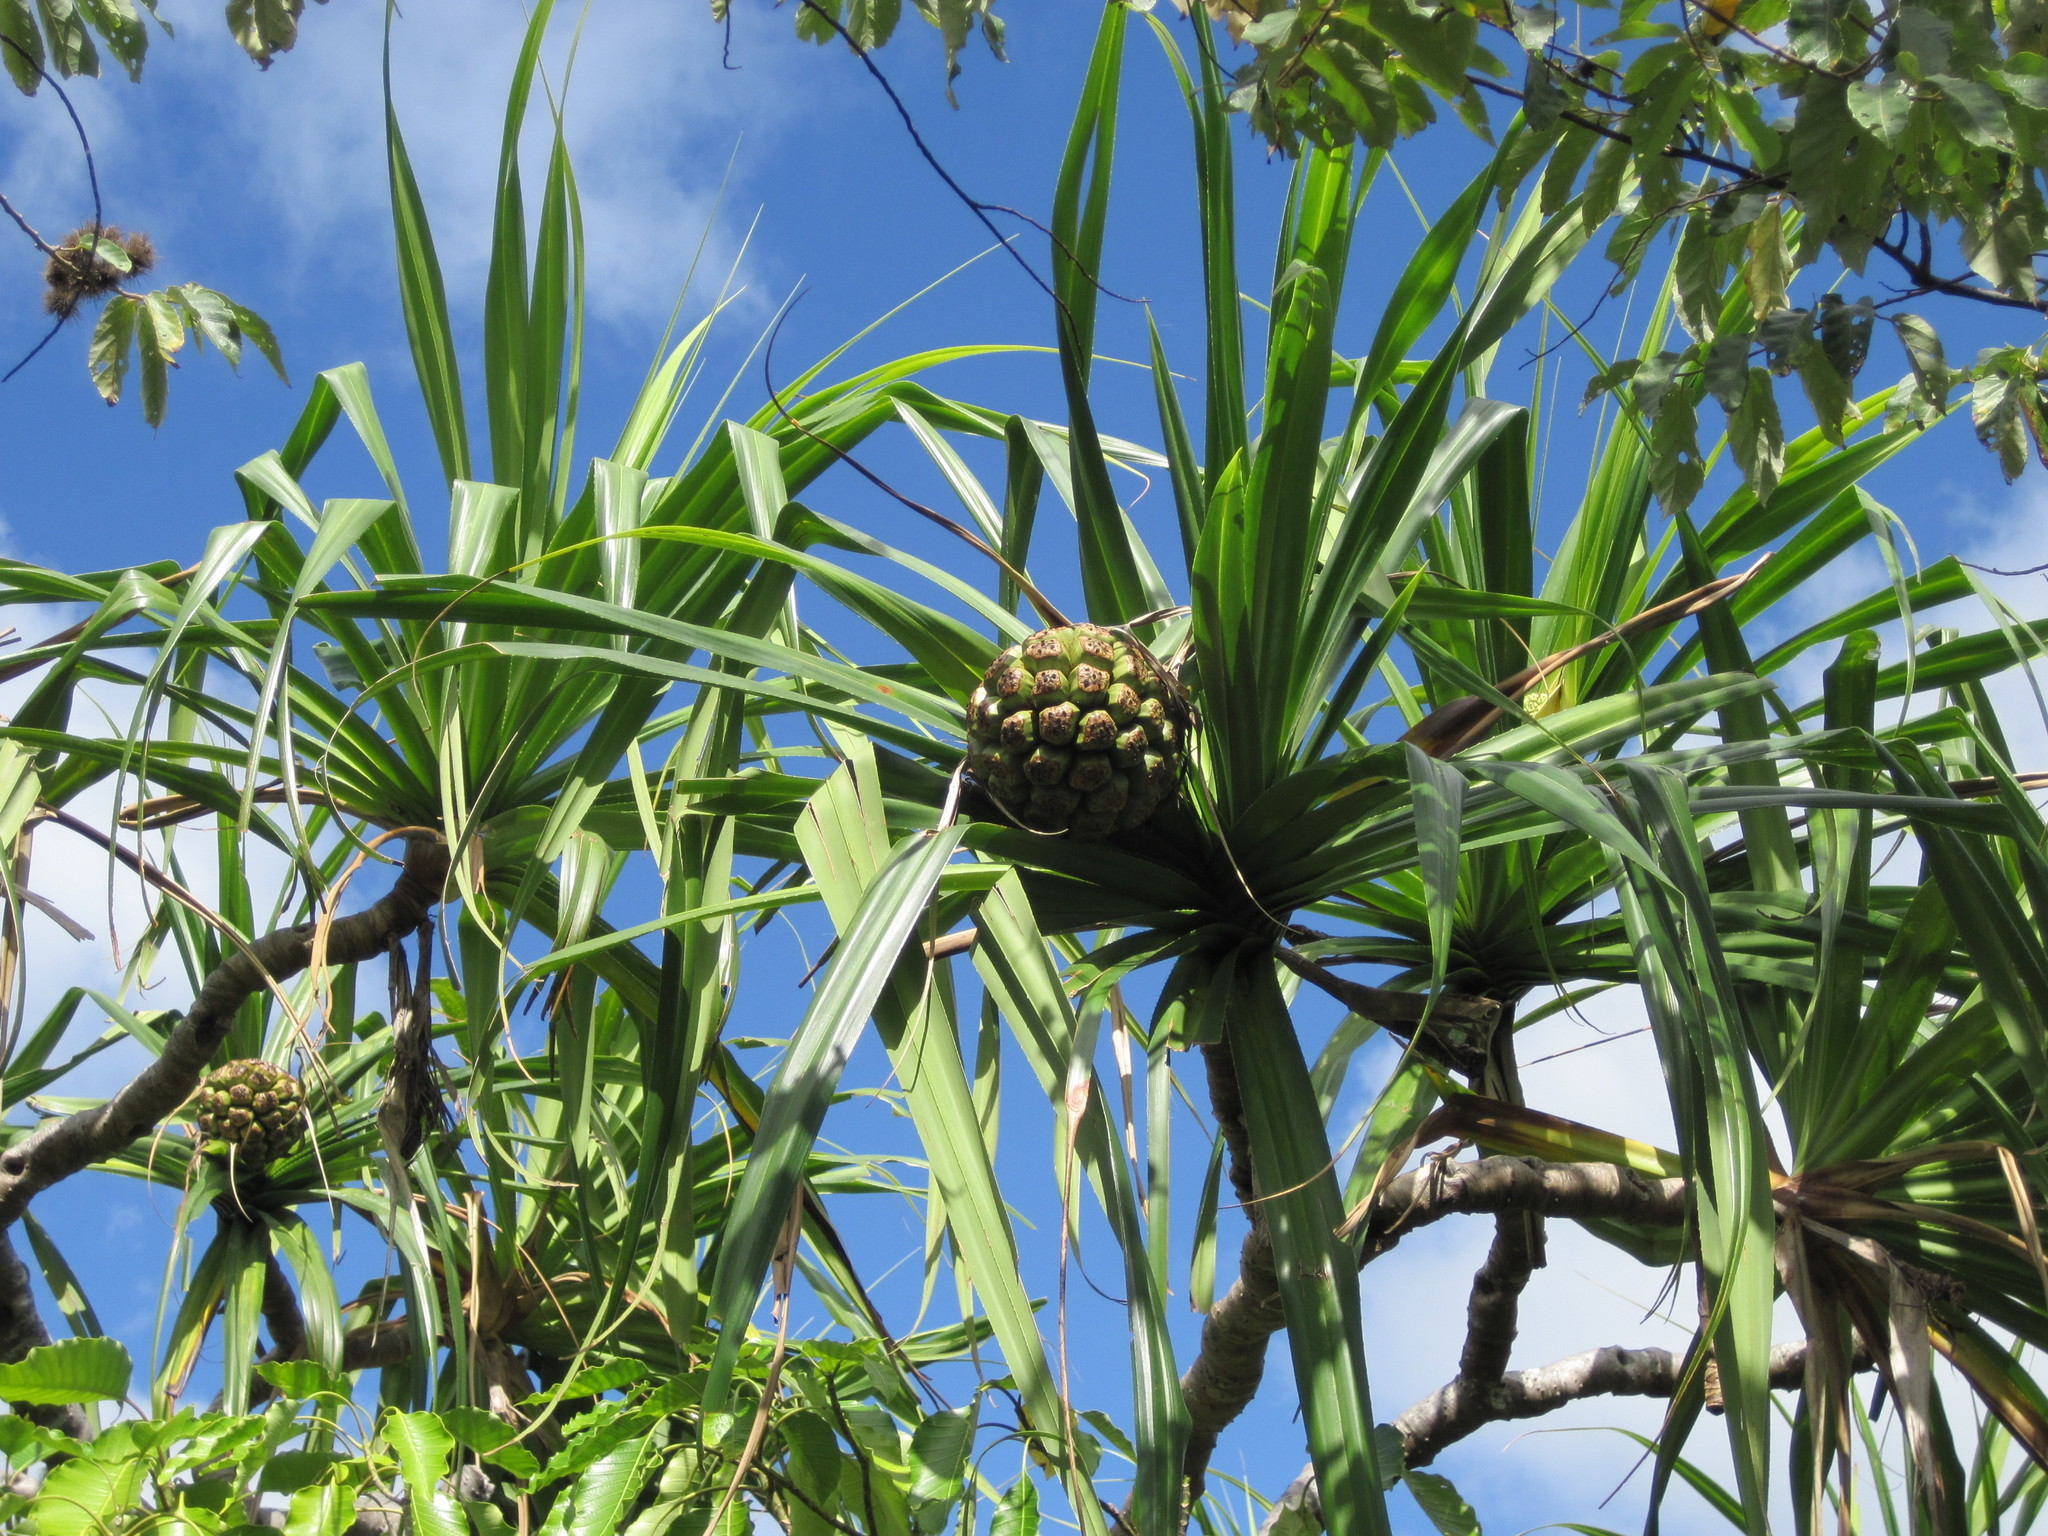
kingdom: Plantae
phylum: Tracheophyta
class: Liliopsida
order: Pandanales
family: Pandanaceae
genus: Pandanus
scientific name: Pandanus tectorius
